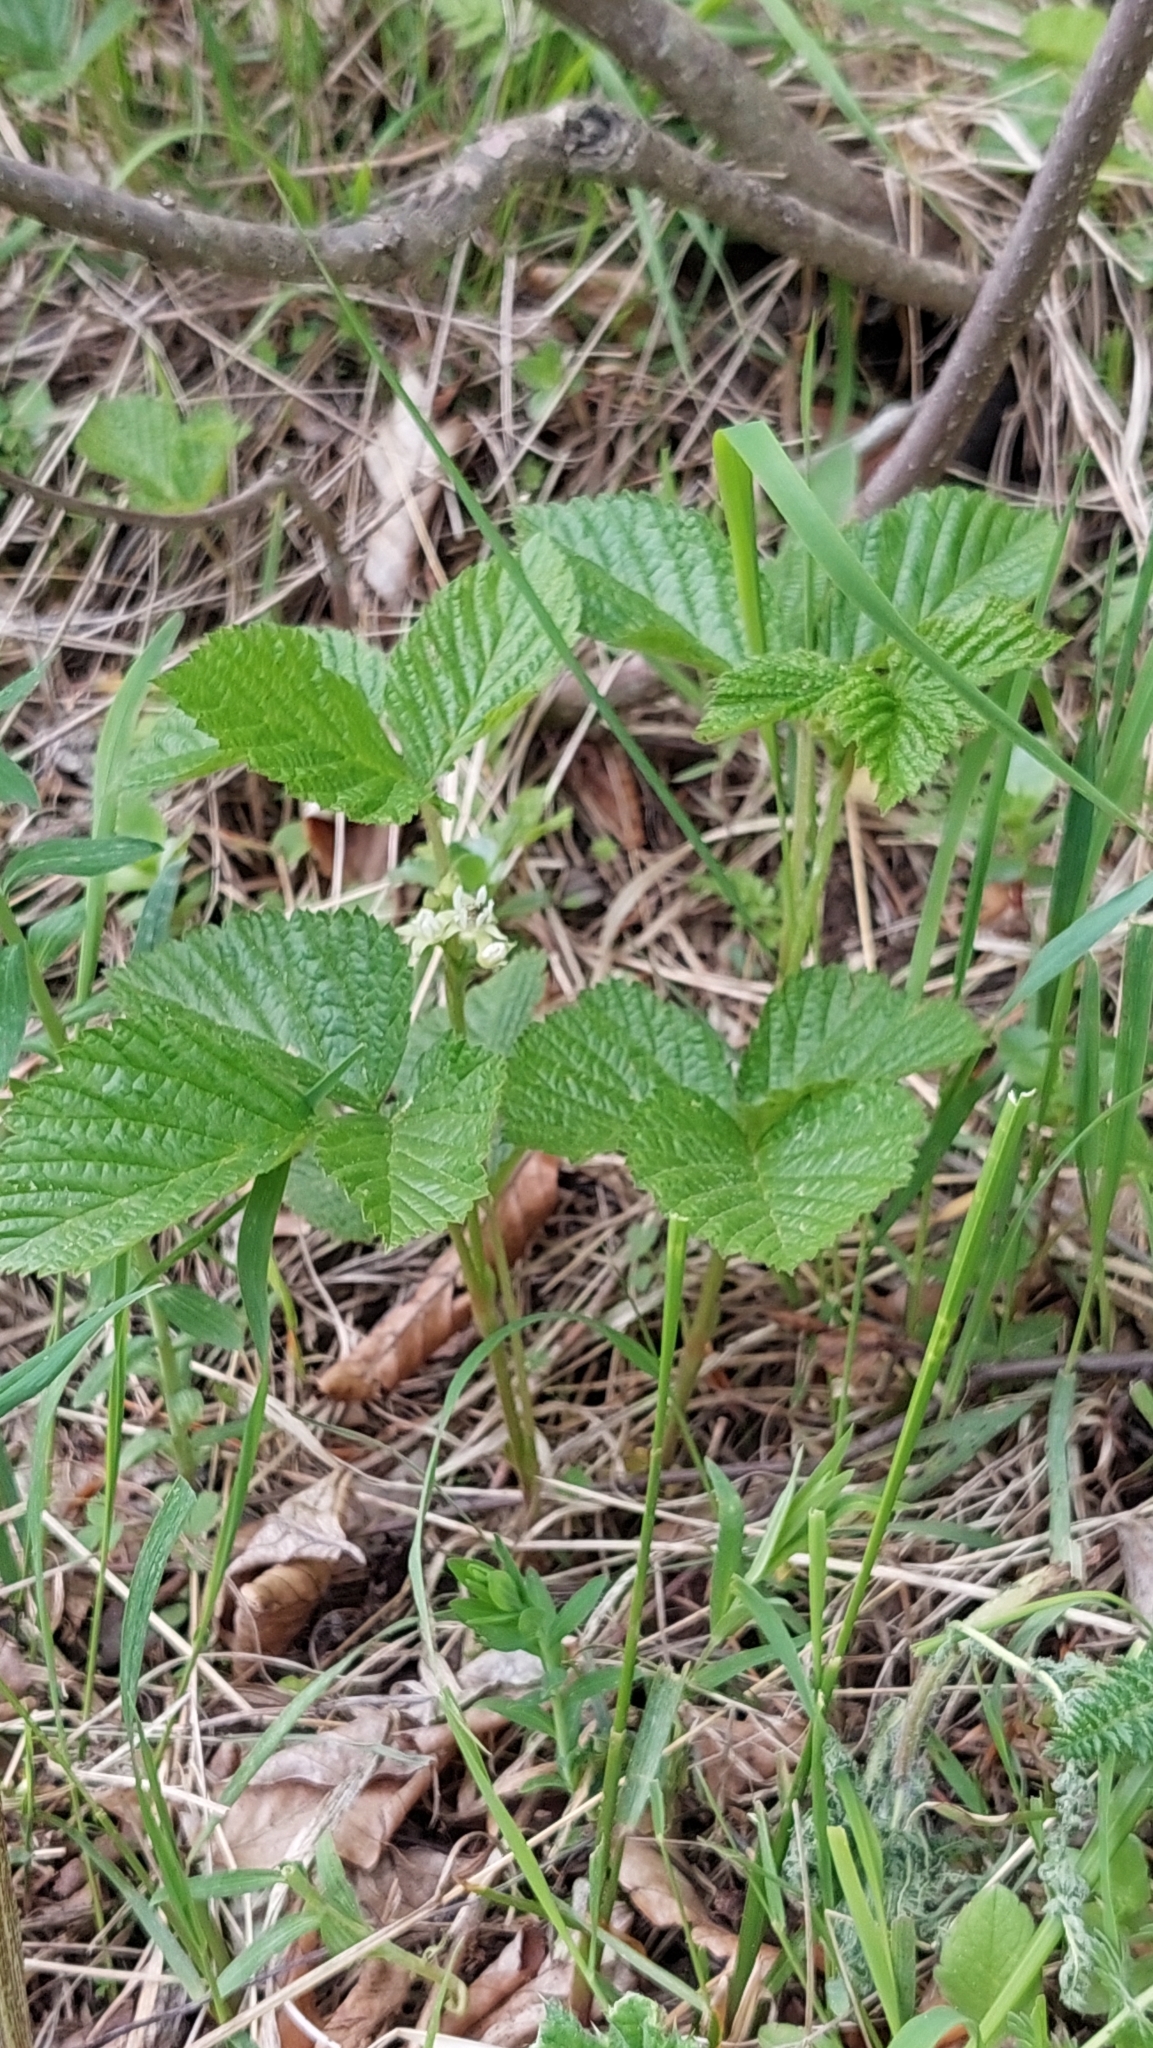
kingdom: Plantae
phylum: Tracheophyta
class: Magnoliopsida
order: Rosales
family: Rosaceae
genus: Rubus
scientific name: Rubus saxatilis
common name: Stone bramble
